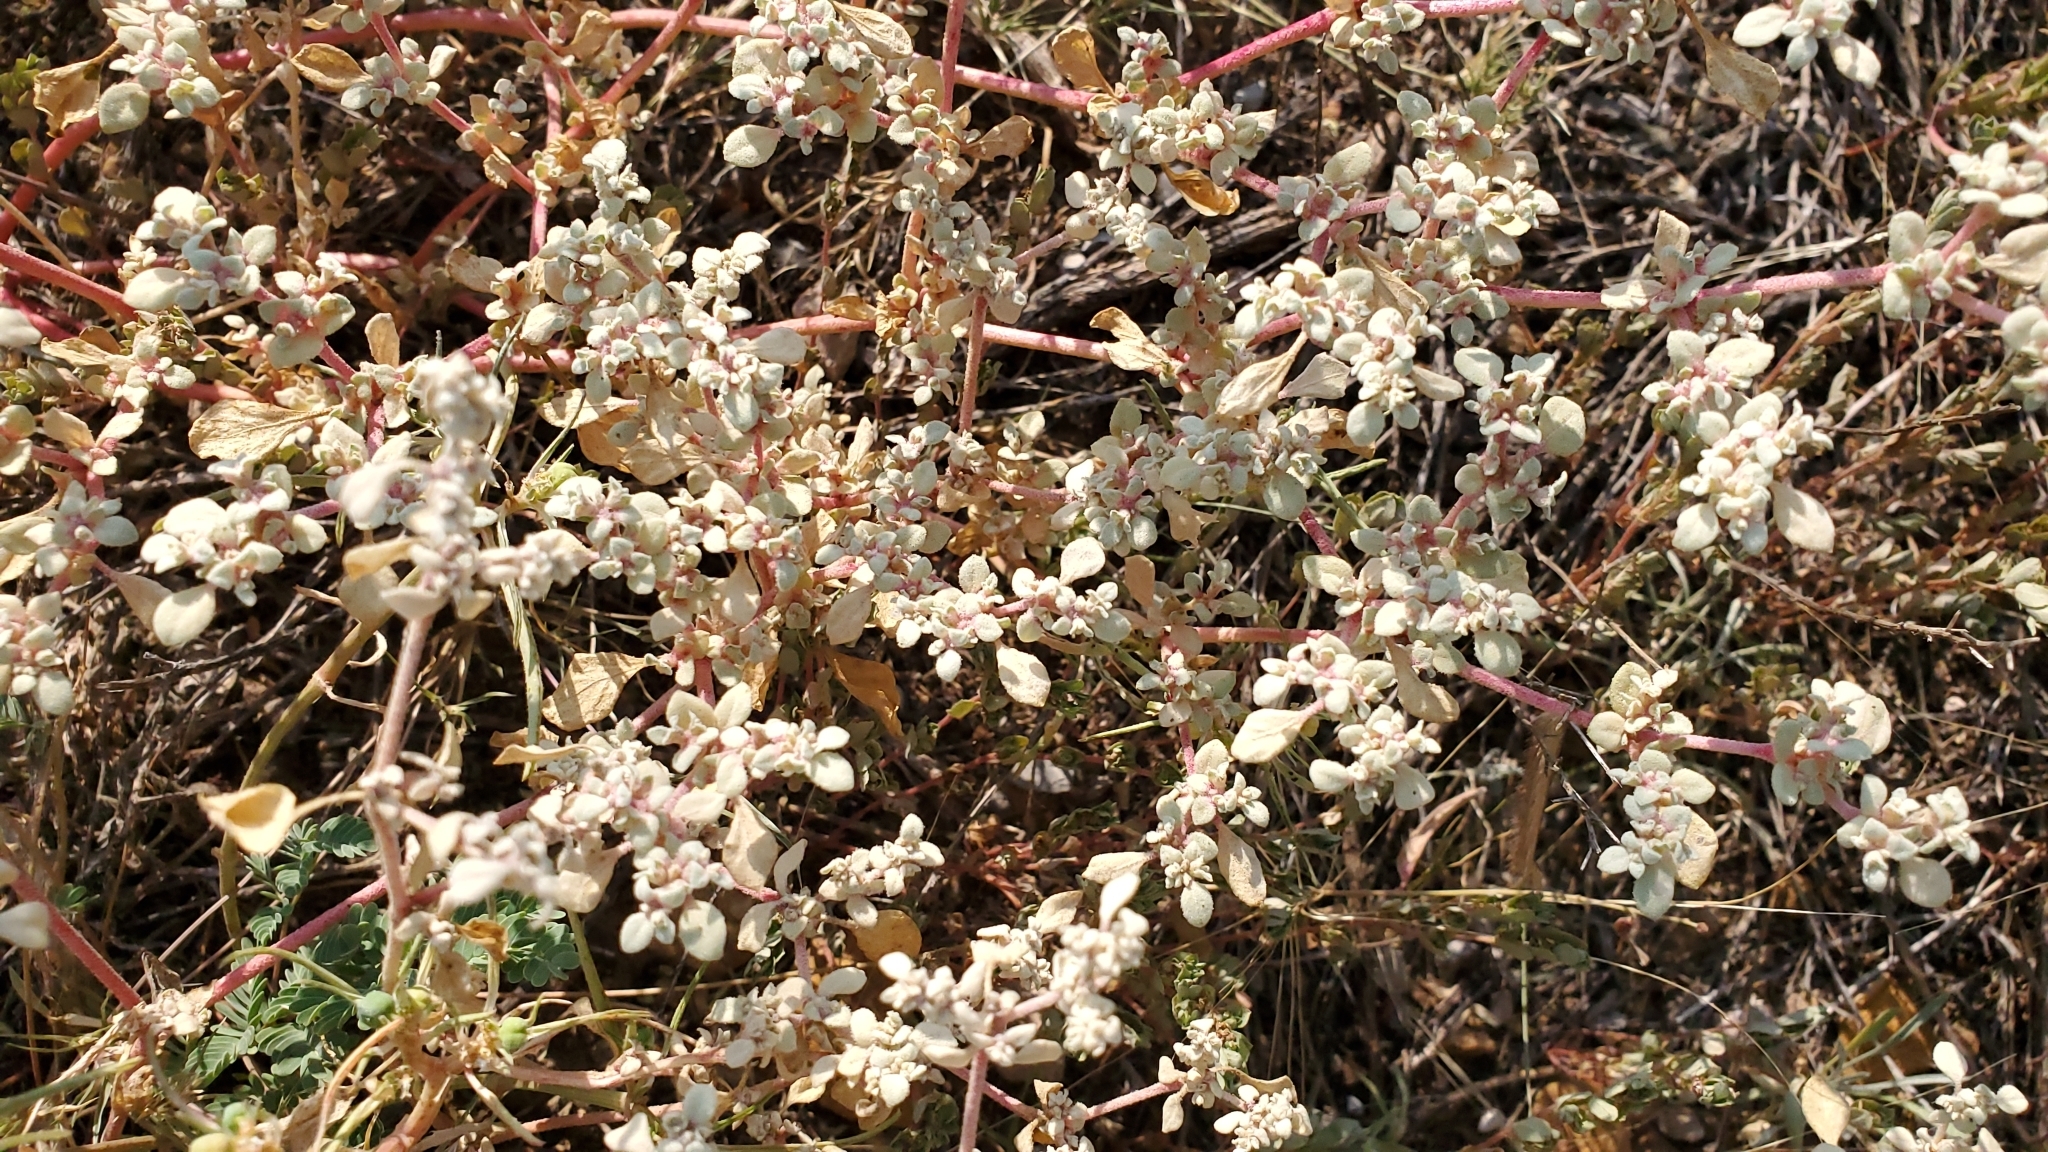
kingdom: Plantae
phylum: Tracheophyta
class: Magnoliopsida
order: Caryophyllales
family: Amaranthaceae
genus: Tidestromia
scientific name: Tidestromia lanuginosa
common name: Woolly tidestromia
